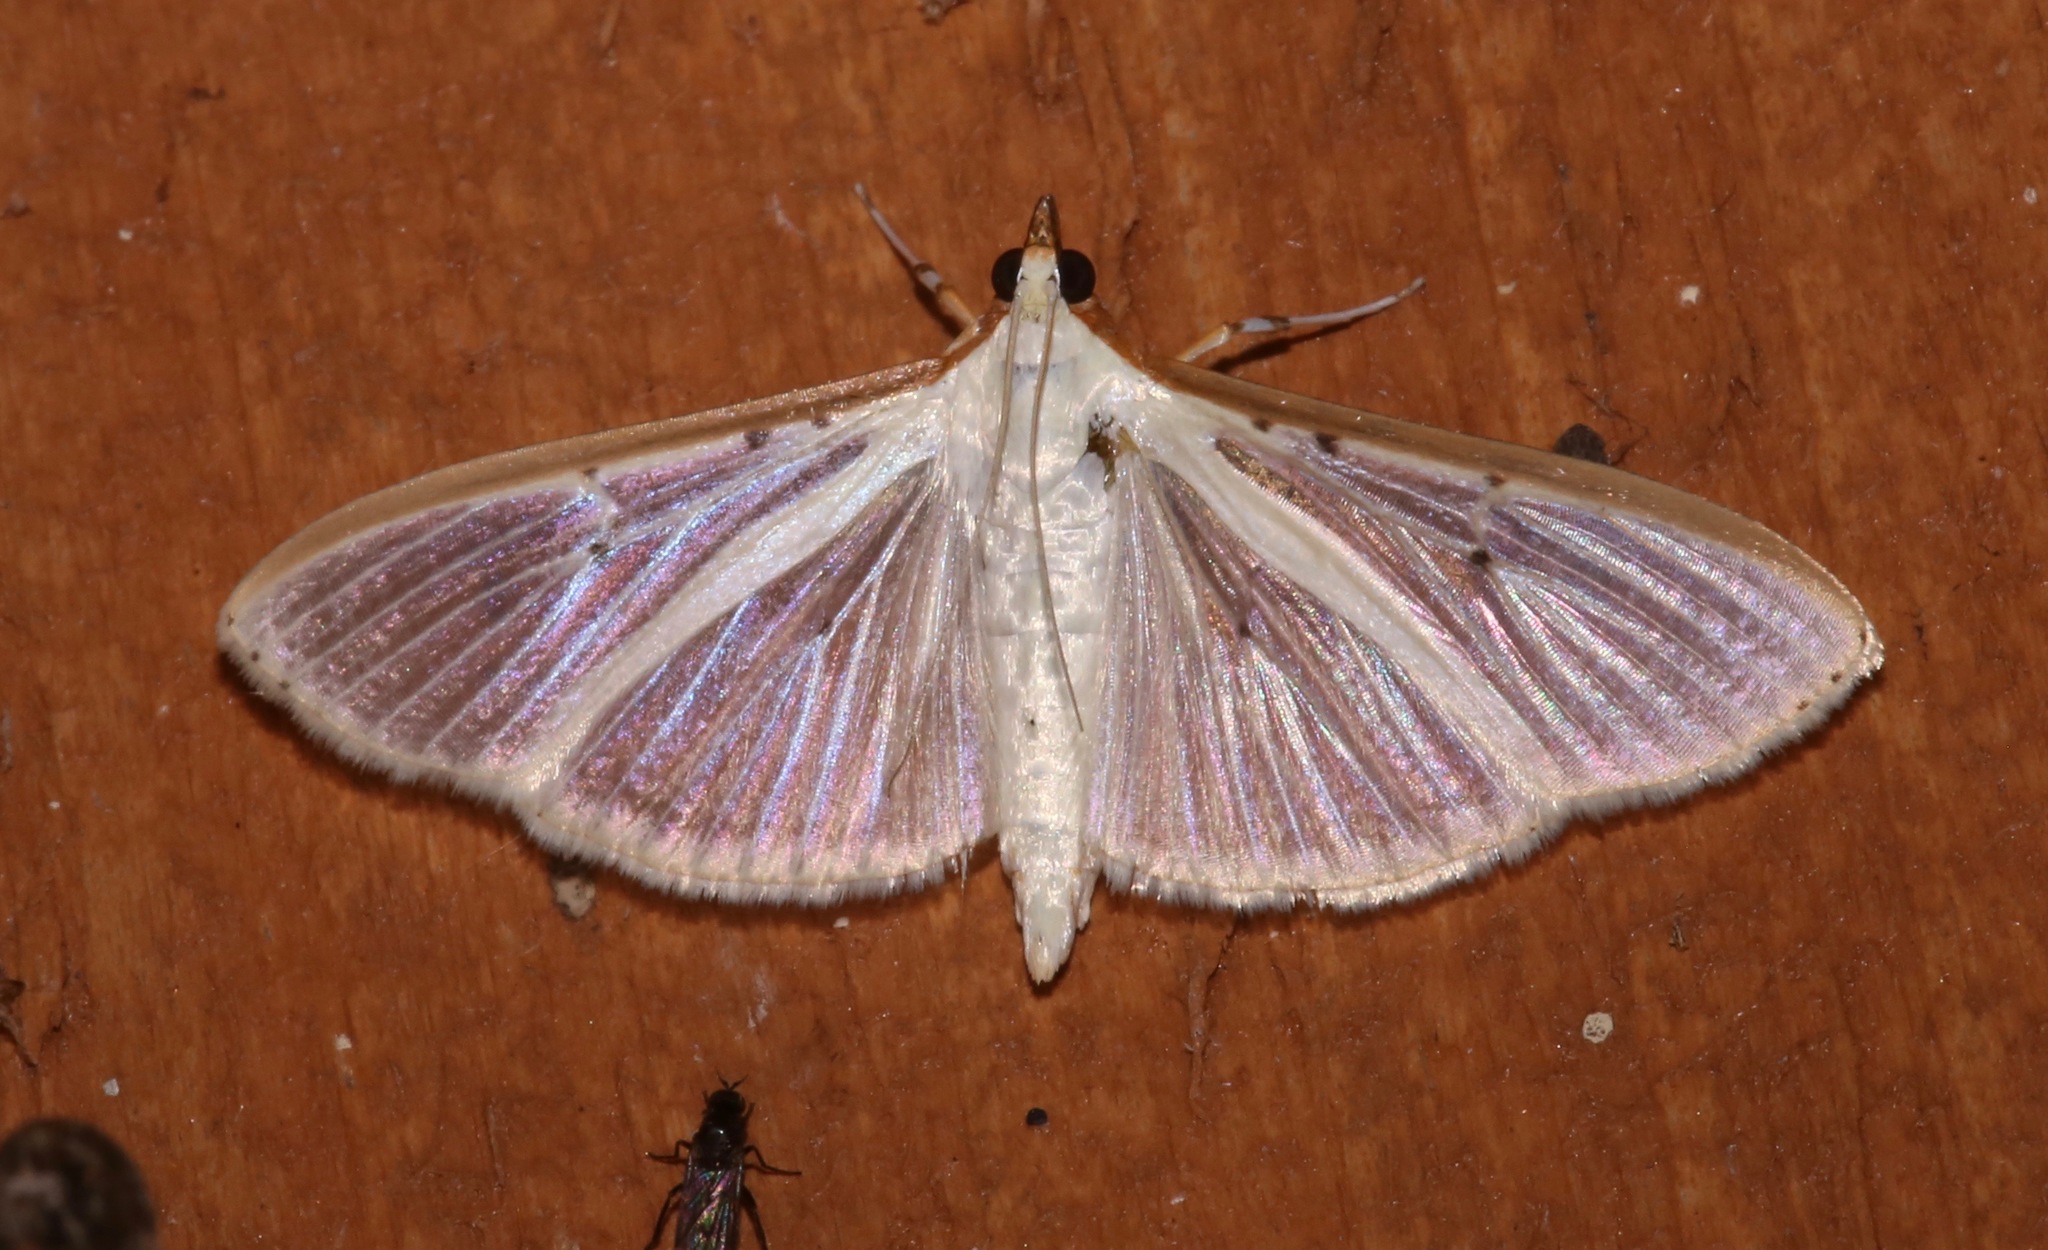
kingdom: Animalia
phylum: Arthropoda
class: Insecta
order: Lepidoptera
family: Crambidae
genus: Palpita
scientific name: Palpita quadristigmalis
